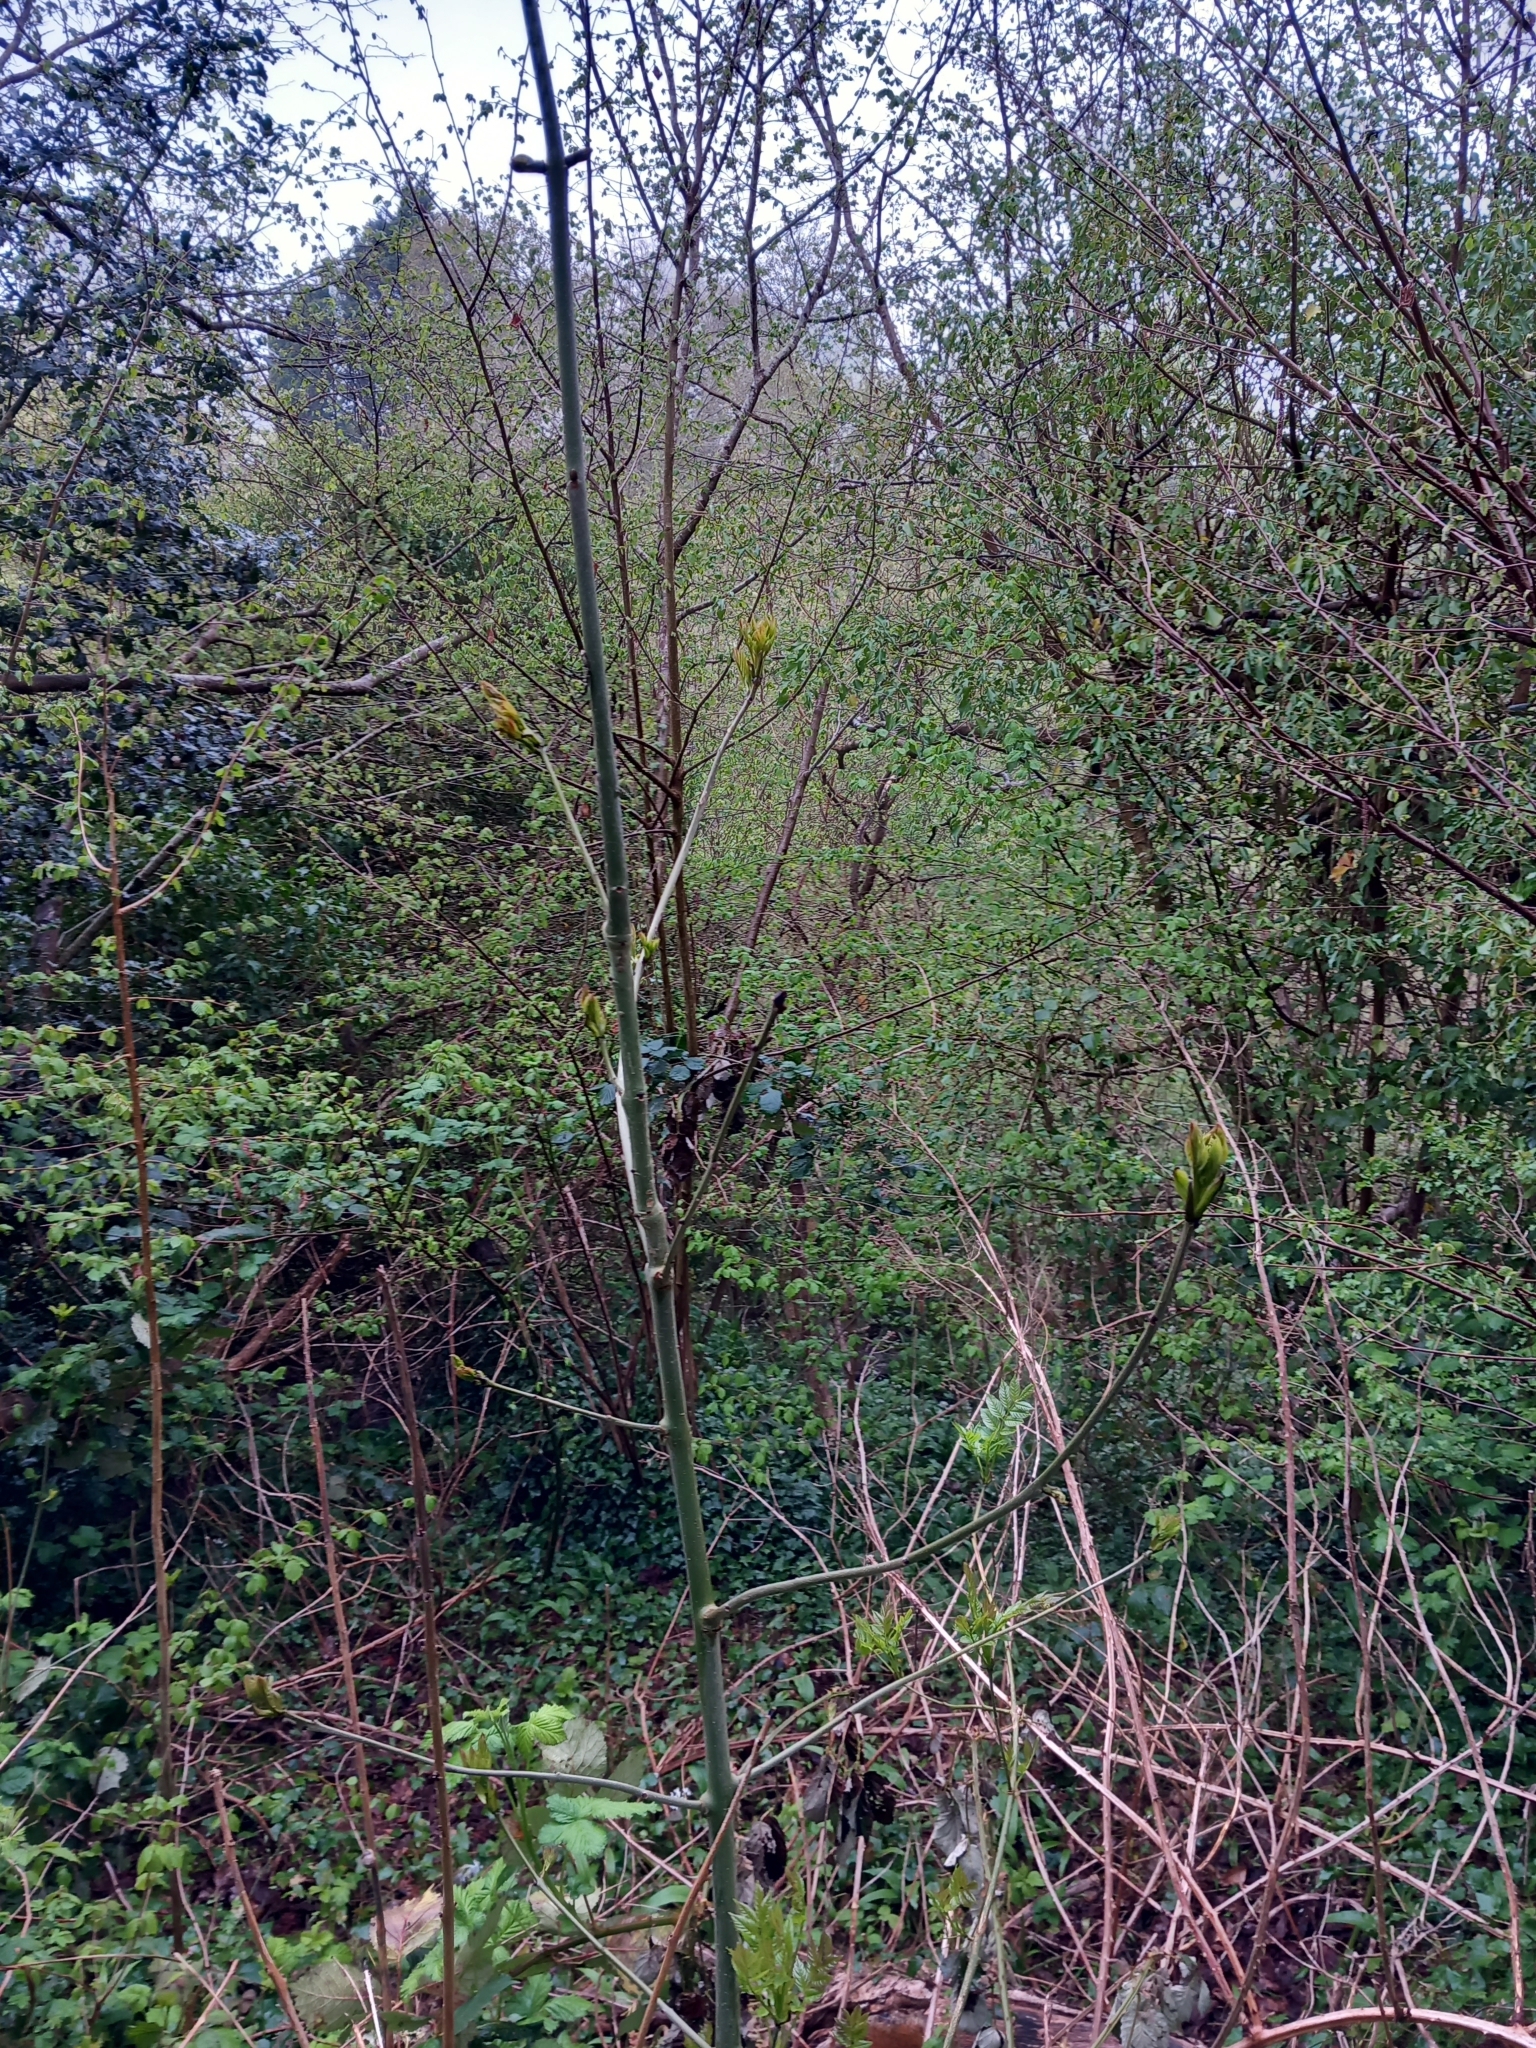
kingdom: Plantae
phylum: Tracheophyta
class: Magnoliopsida
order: Lamiales
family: Oleaceae
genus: Fraxinus
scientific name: Fraxinus excelsior
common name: European ash
